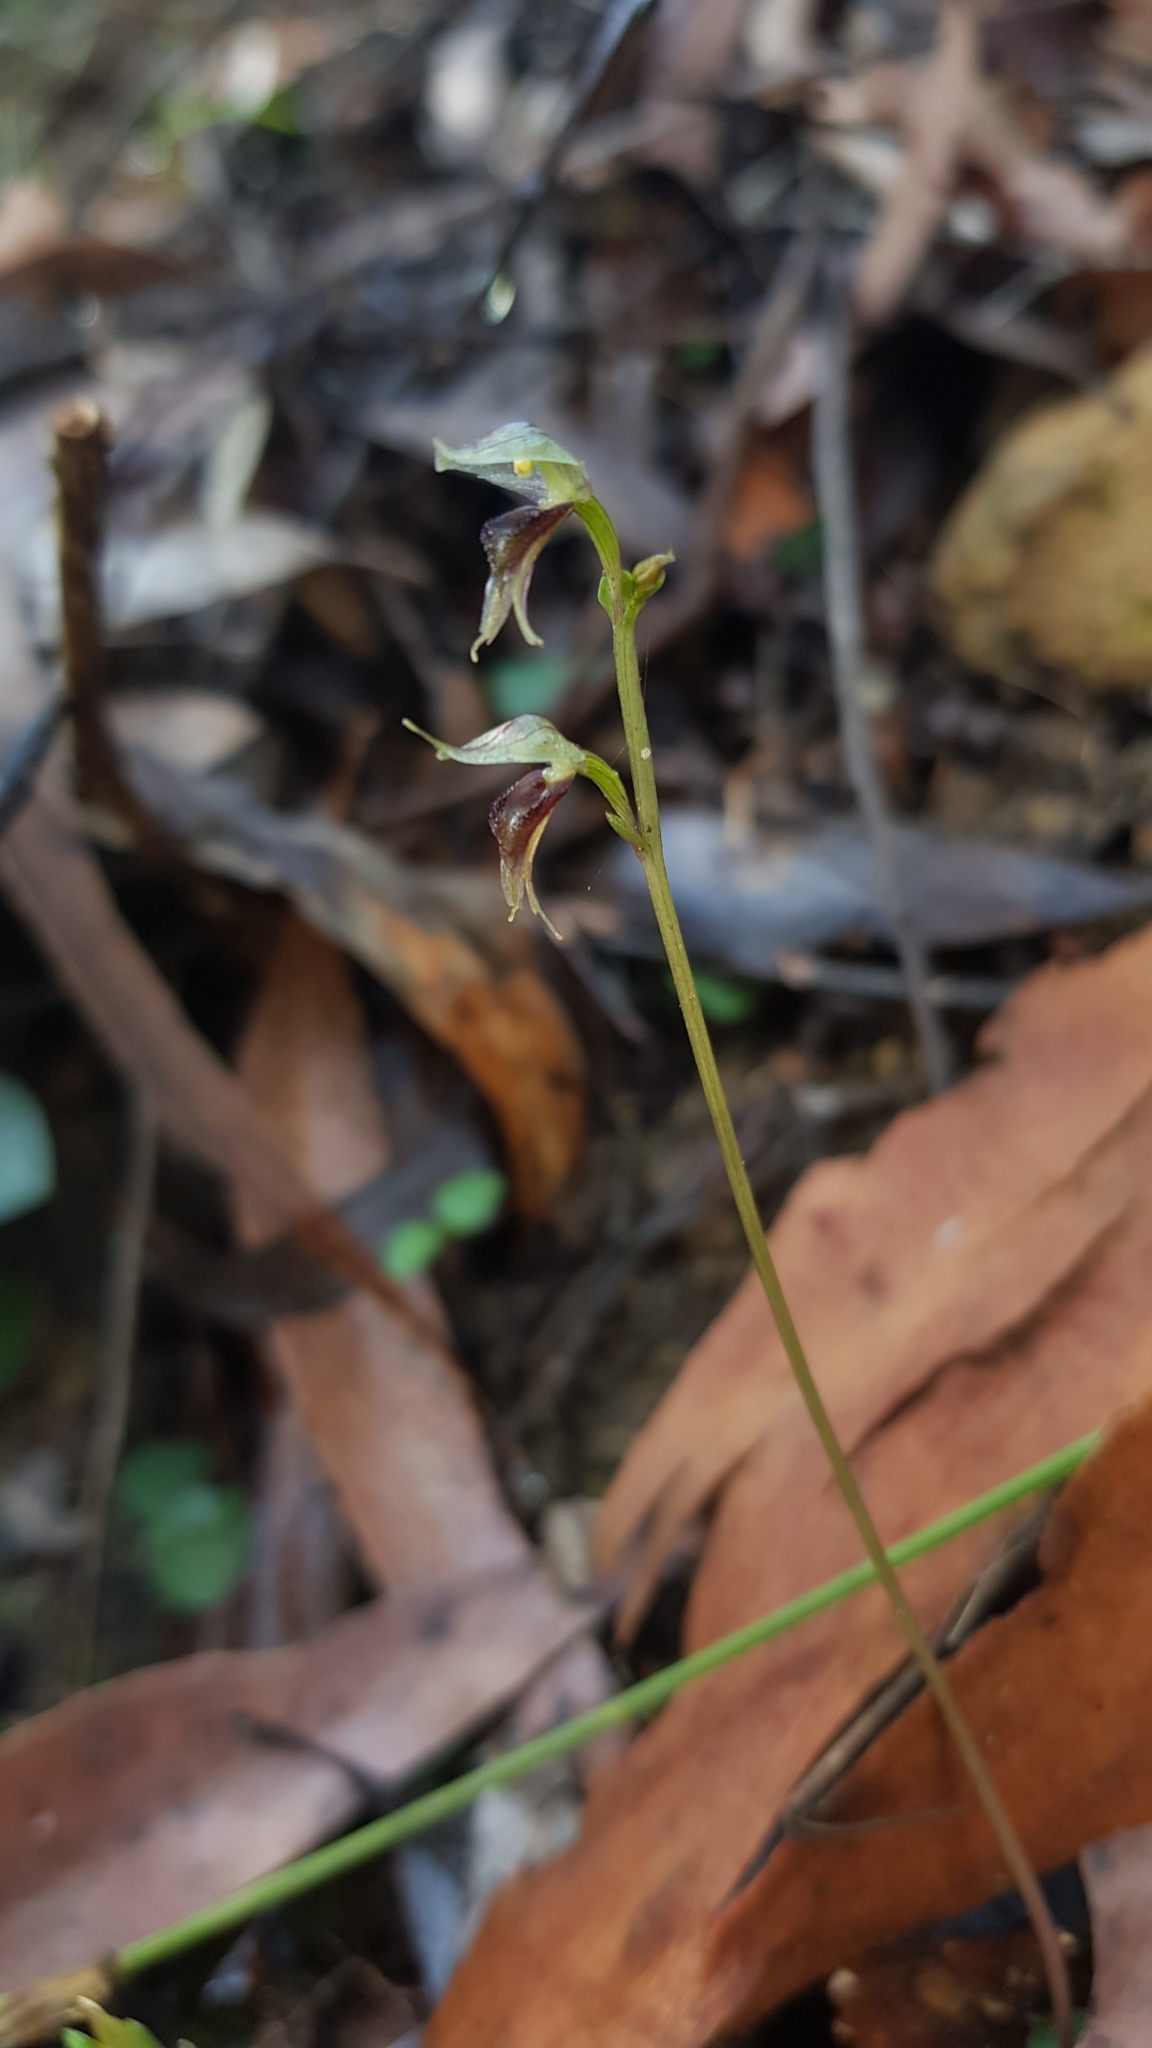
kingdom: Plantae
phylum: Tracheophyta
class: Liliopsida
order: Asparagales
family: Orchidaceae
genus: Acianthus
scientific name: Acianthus fornicatus
